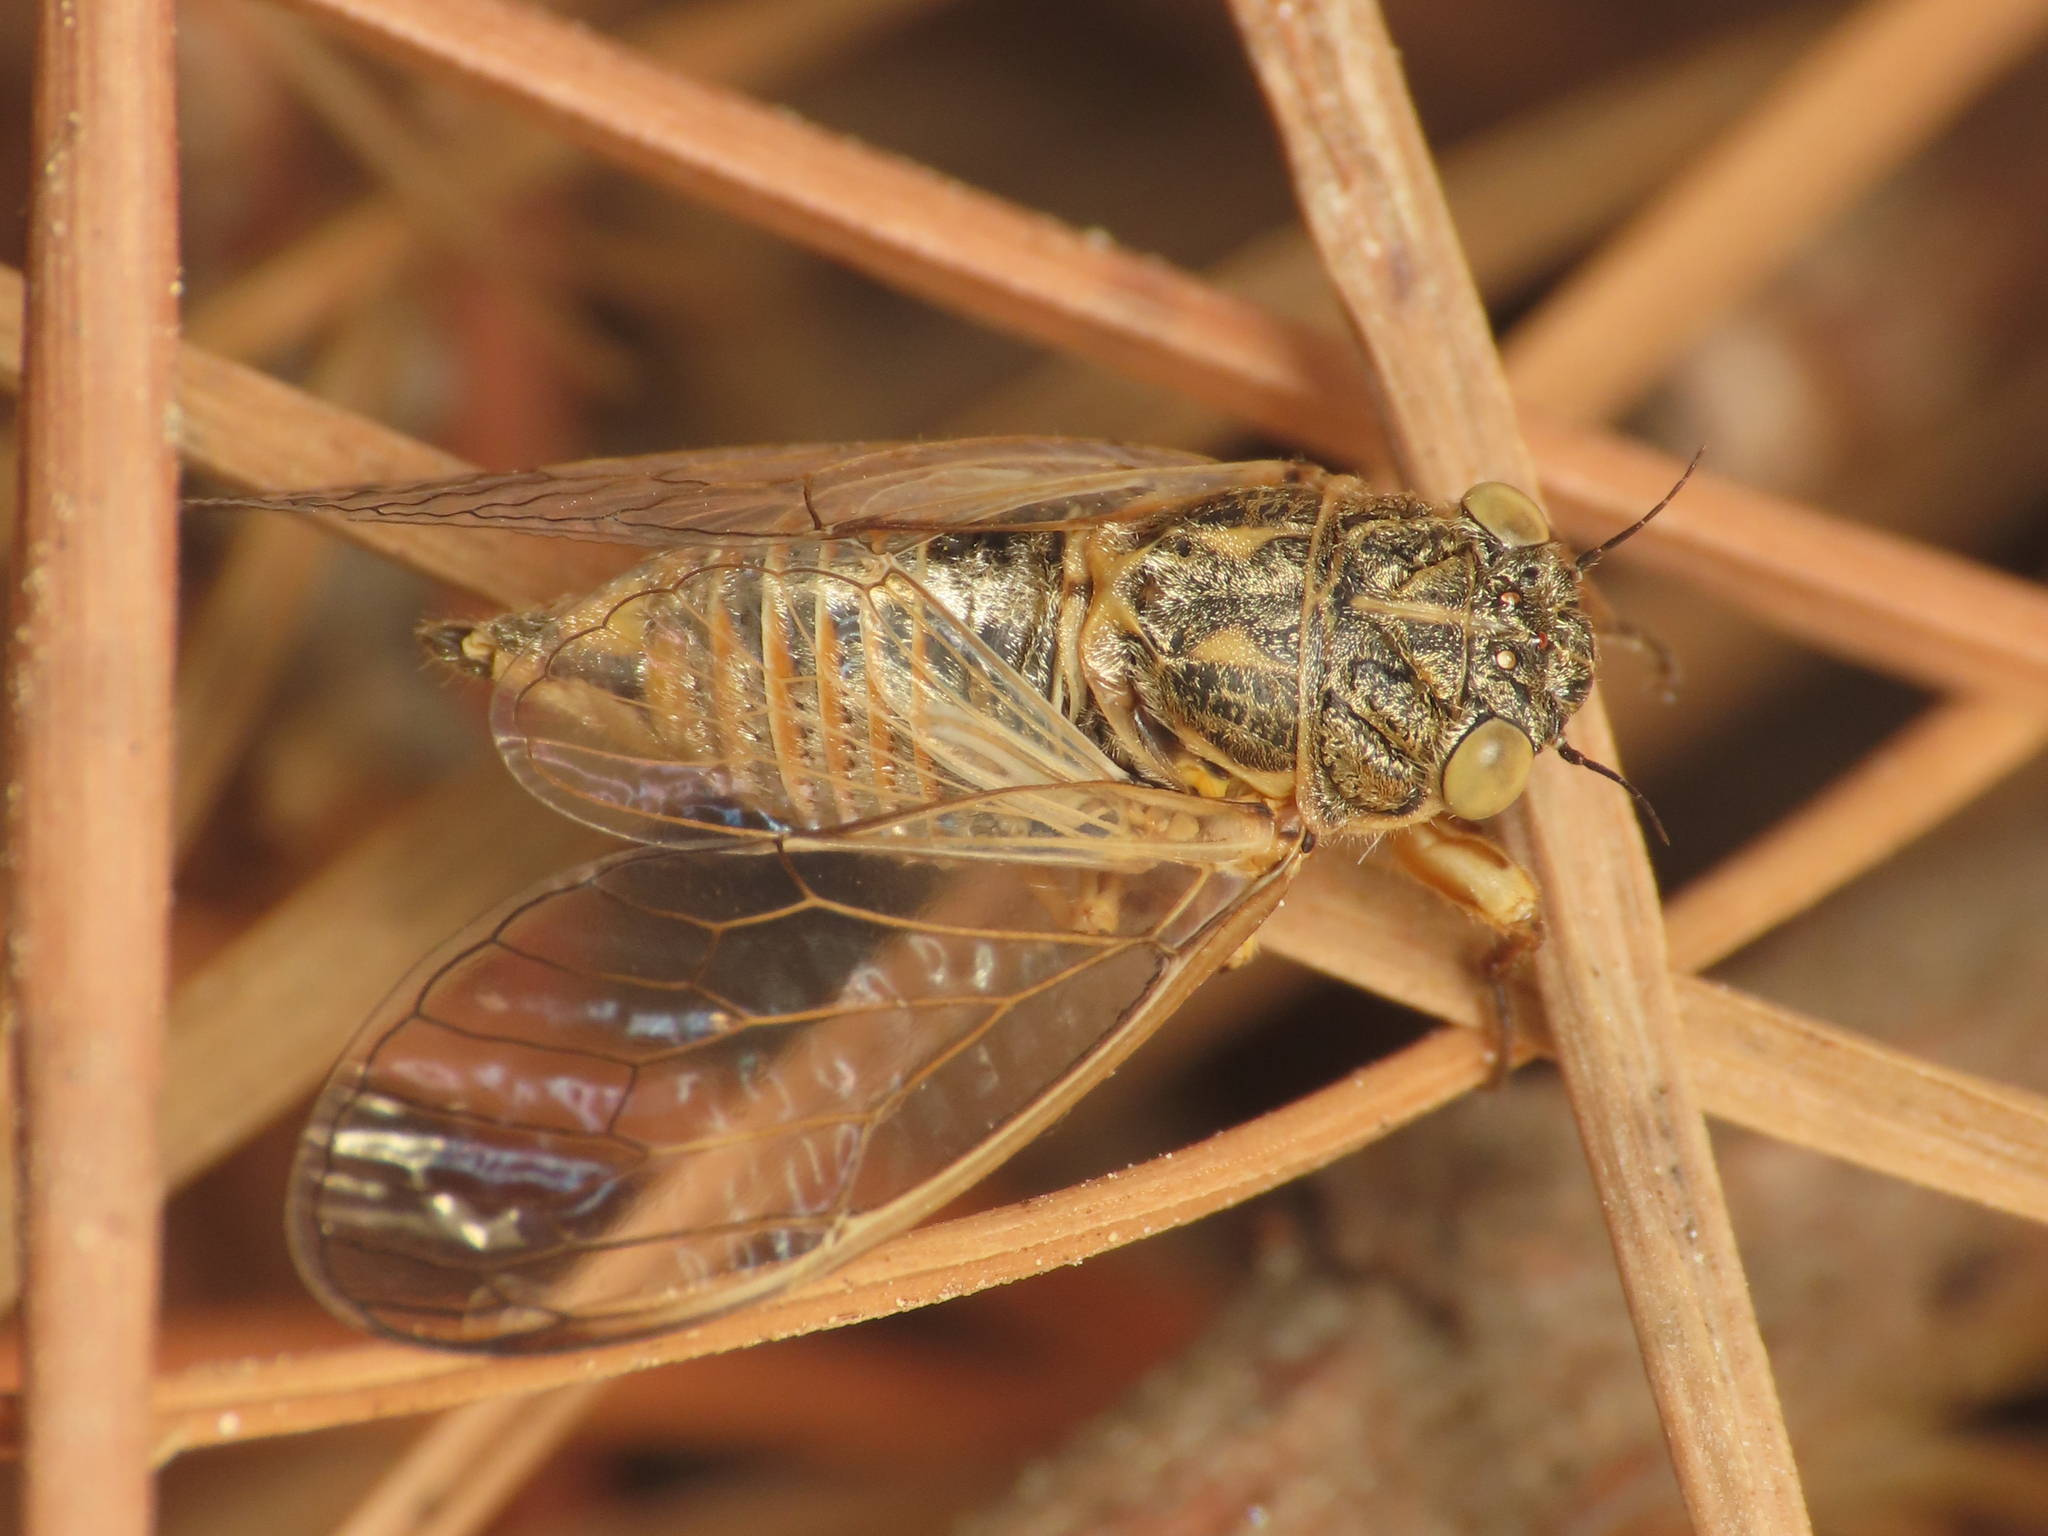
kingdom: Animalia
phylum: Arthropoda
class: Insecta
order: Hemiptera
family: Cicadidae
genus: Cicadetta
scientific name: Cicadetta mediterranea
